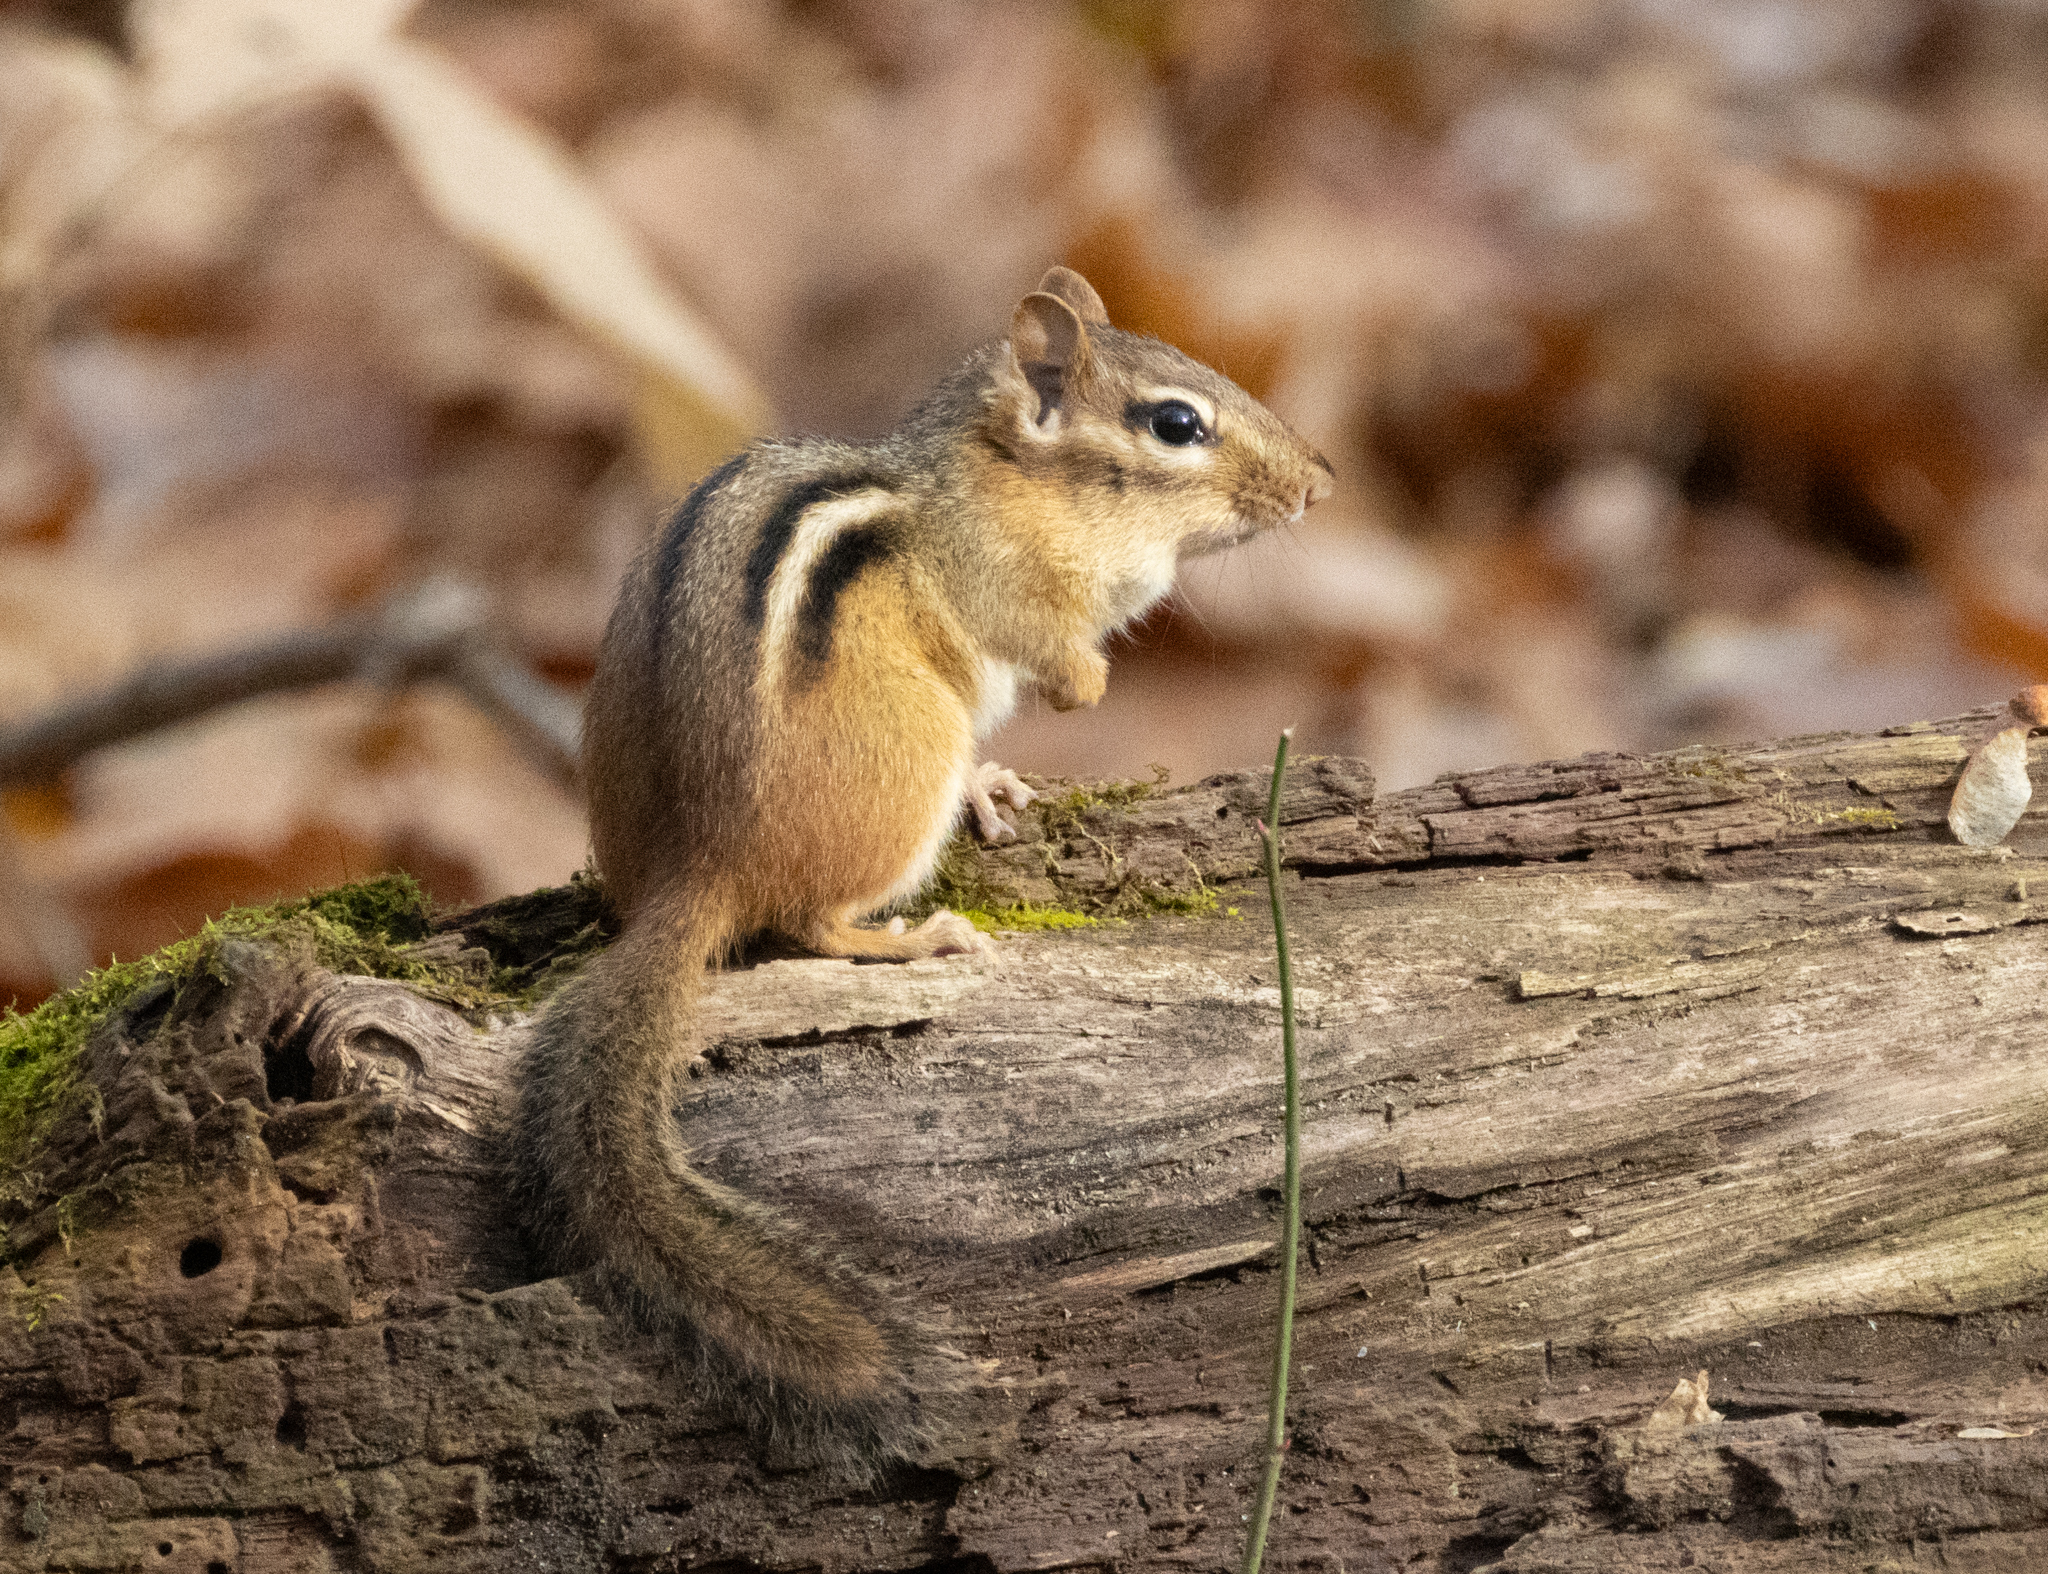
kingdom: Animalia
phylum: Chordata
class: Mammalia
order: Rodentia
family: Sciuridae
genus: Tamias
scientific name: Tamias striatus
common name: Eastern chipmunk
